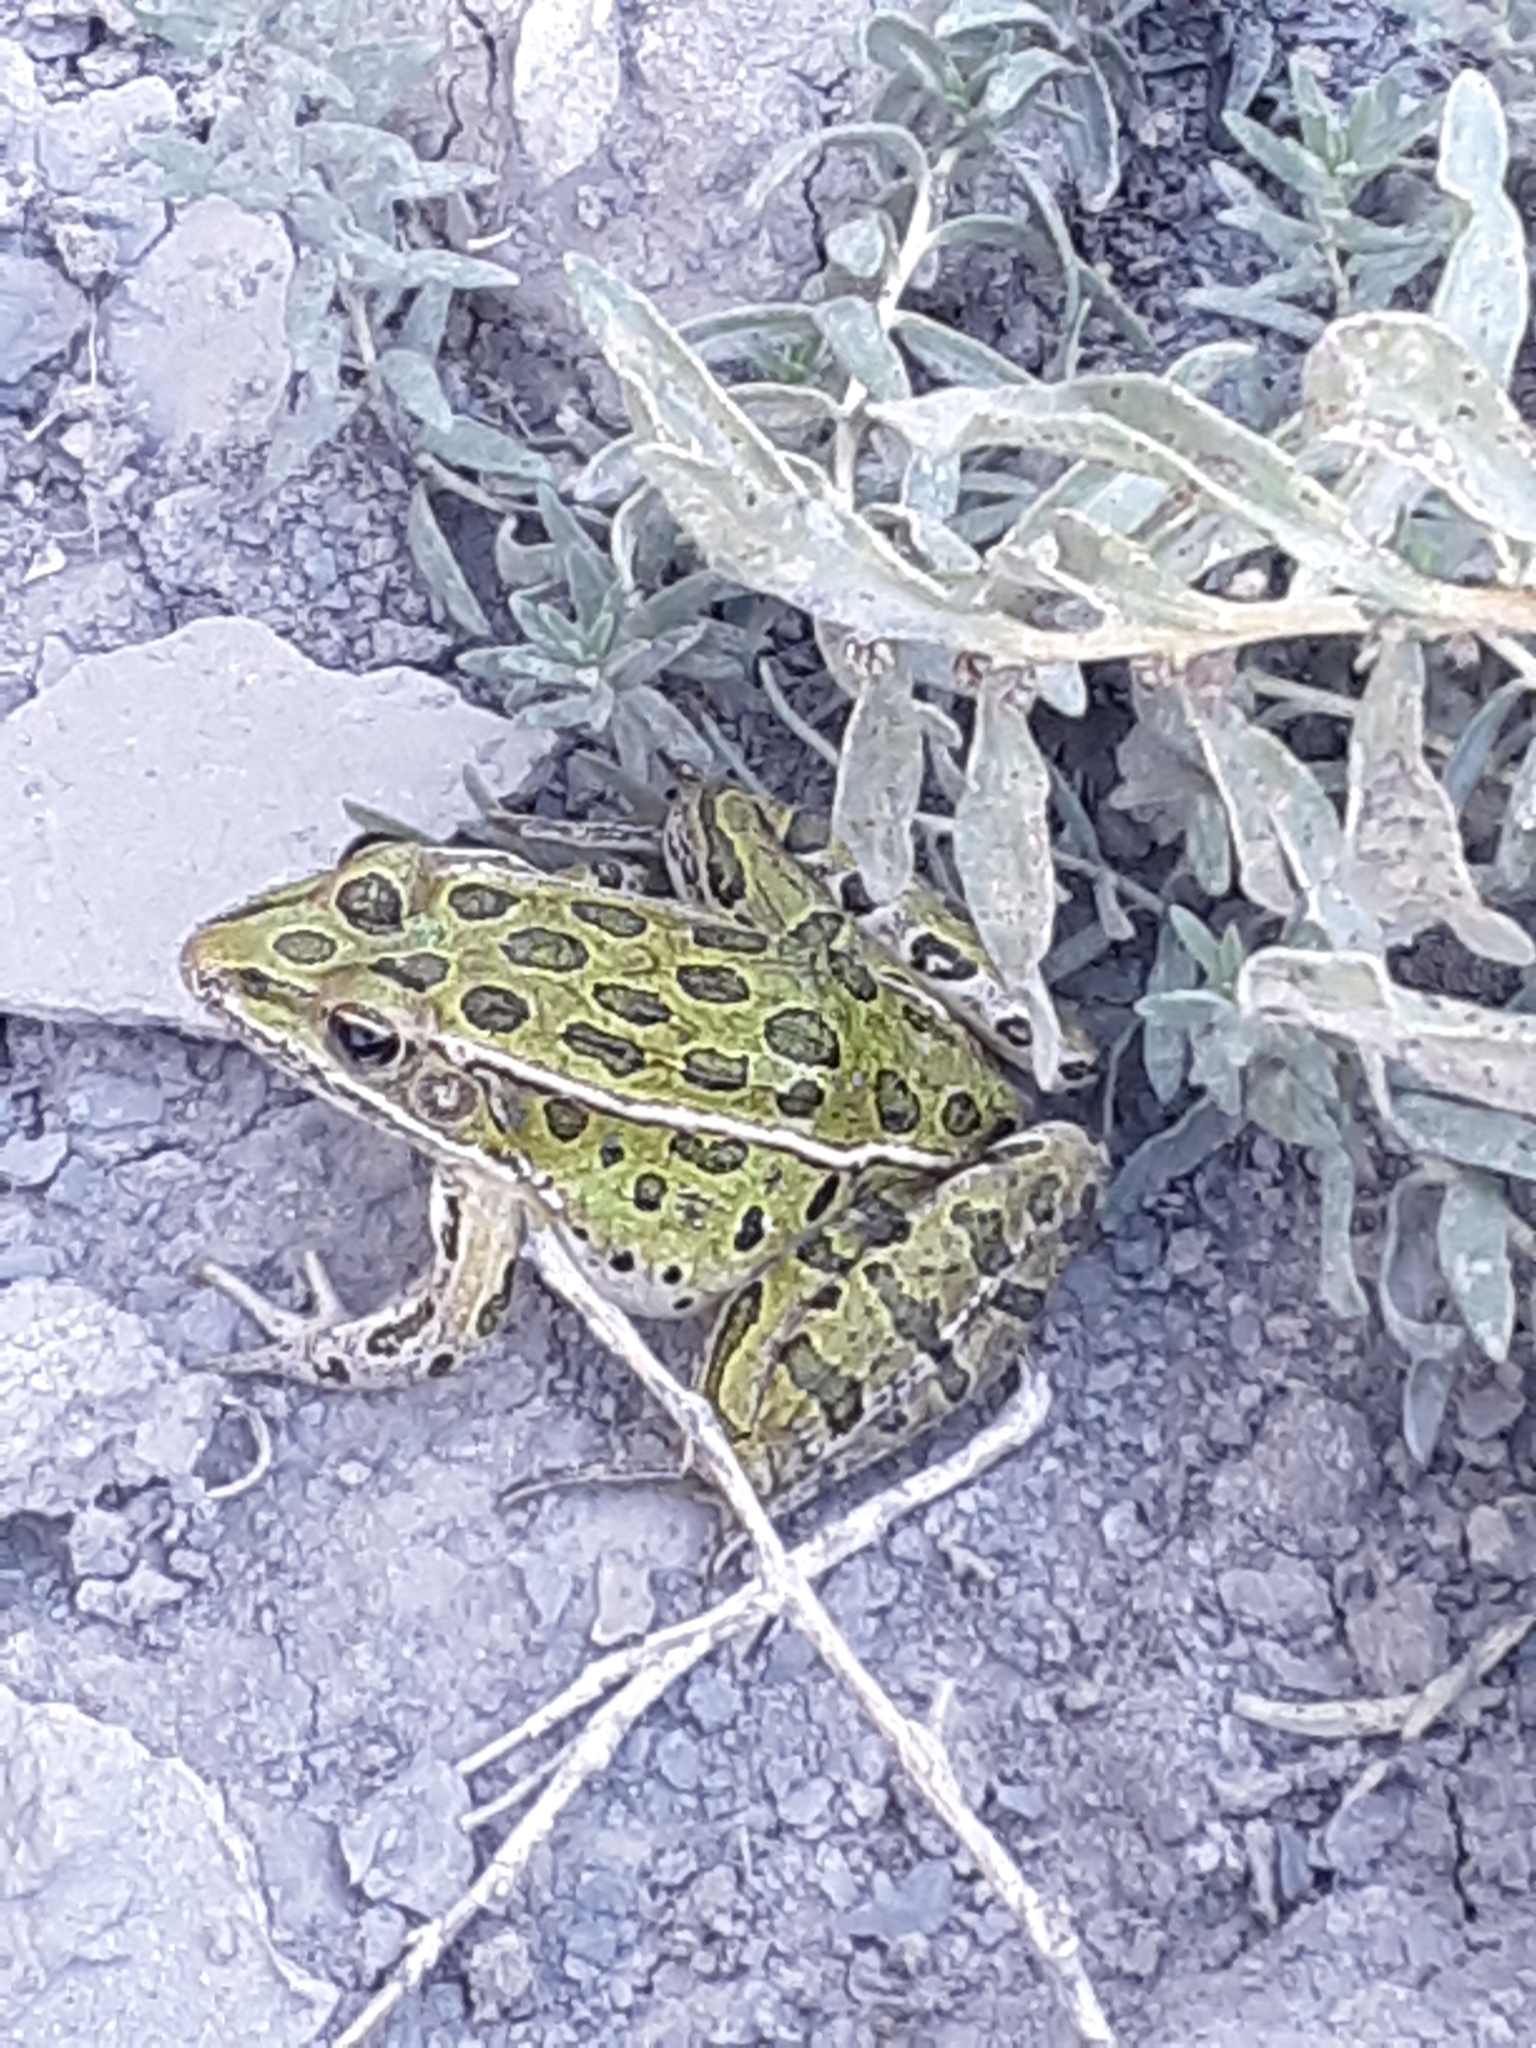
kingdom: Animalia
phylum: Chordata
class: Amphibia
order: Anura
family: Ranidae
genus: Lithobates
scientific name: Lithobates pipiens
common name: Northern leopard frog
